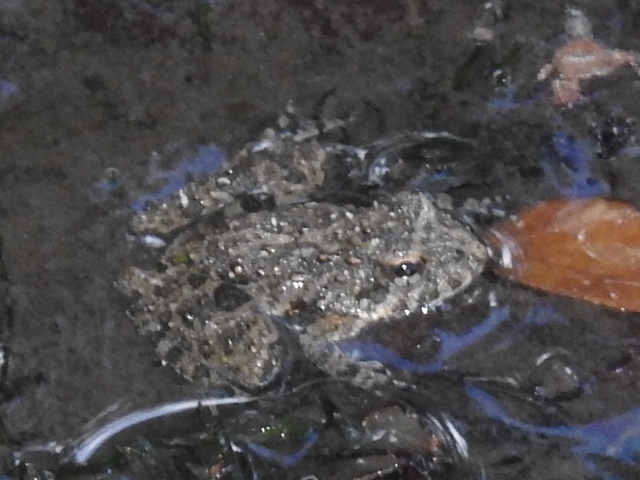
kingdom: Animalia
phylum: Chordata
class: Amphibia
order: Anura
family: Hylidae
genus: Acris
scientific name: Acris blanchardi
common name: Blanchard's cricket frog
